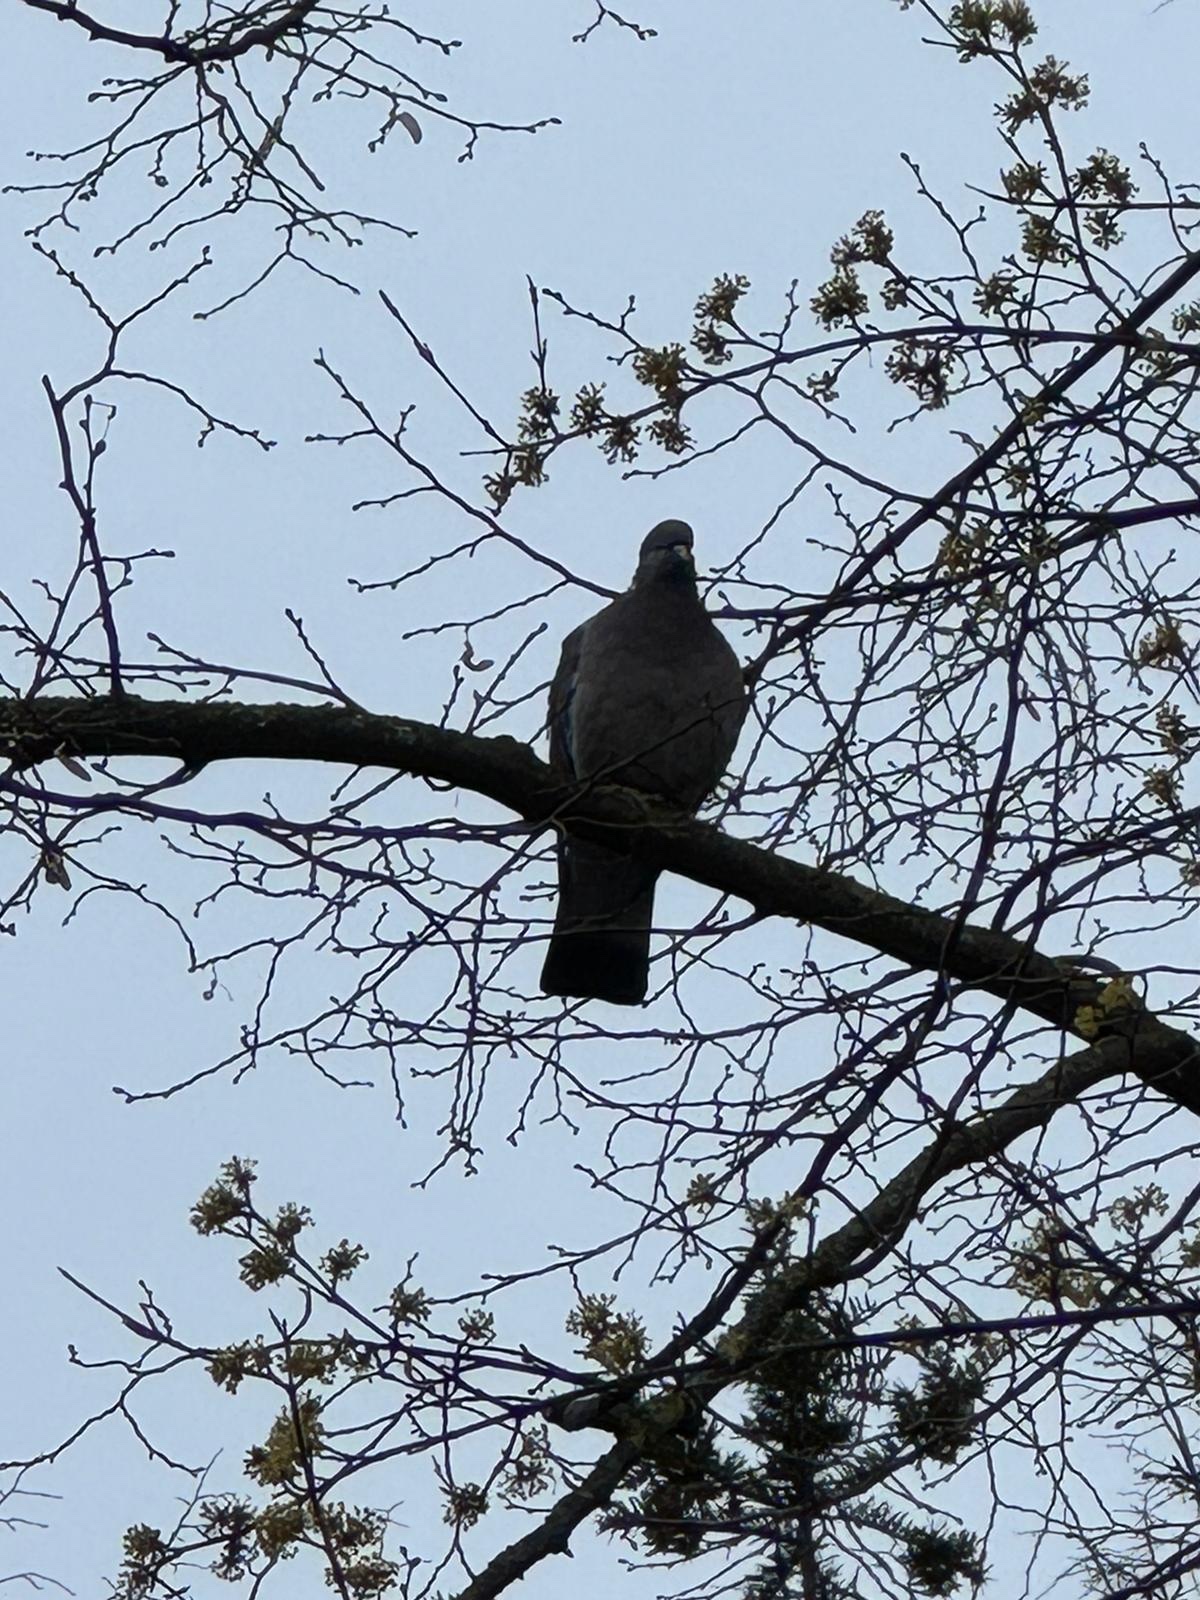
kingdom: Animalia
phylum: Chordata
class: Aves
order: Columbiformes
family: Columbidae
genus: Columba
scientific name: Columba palumbus
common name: Common wood pigeon
